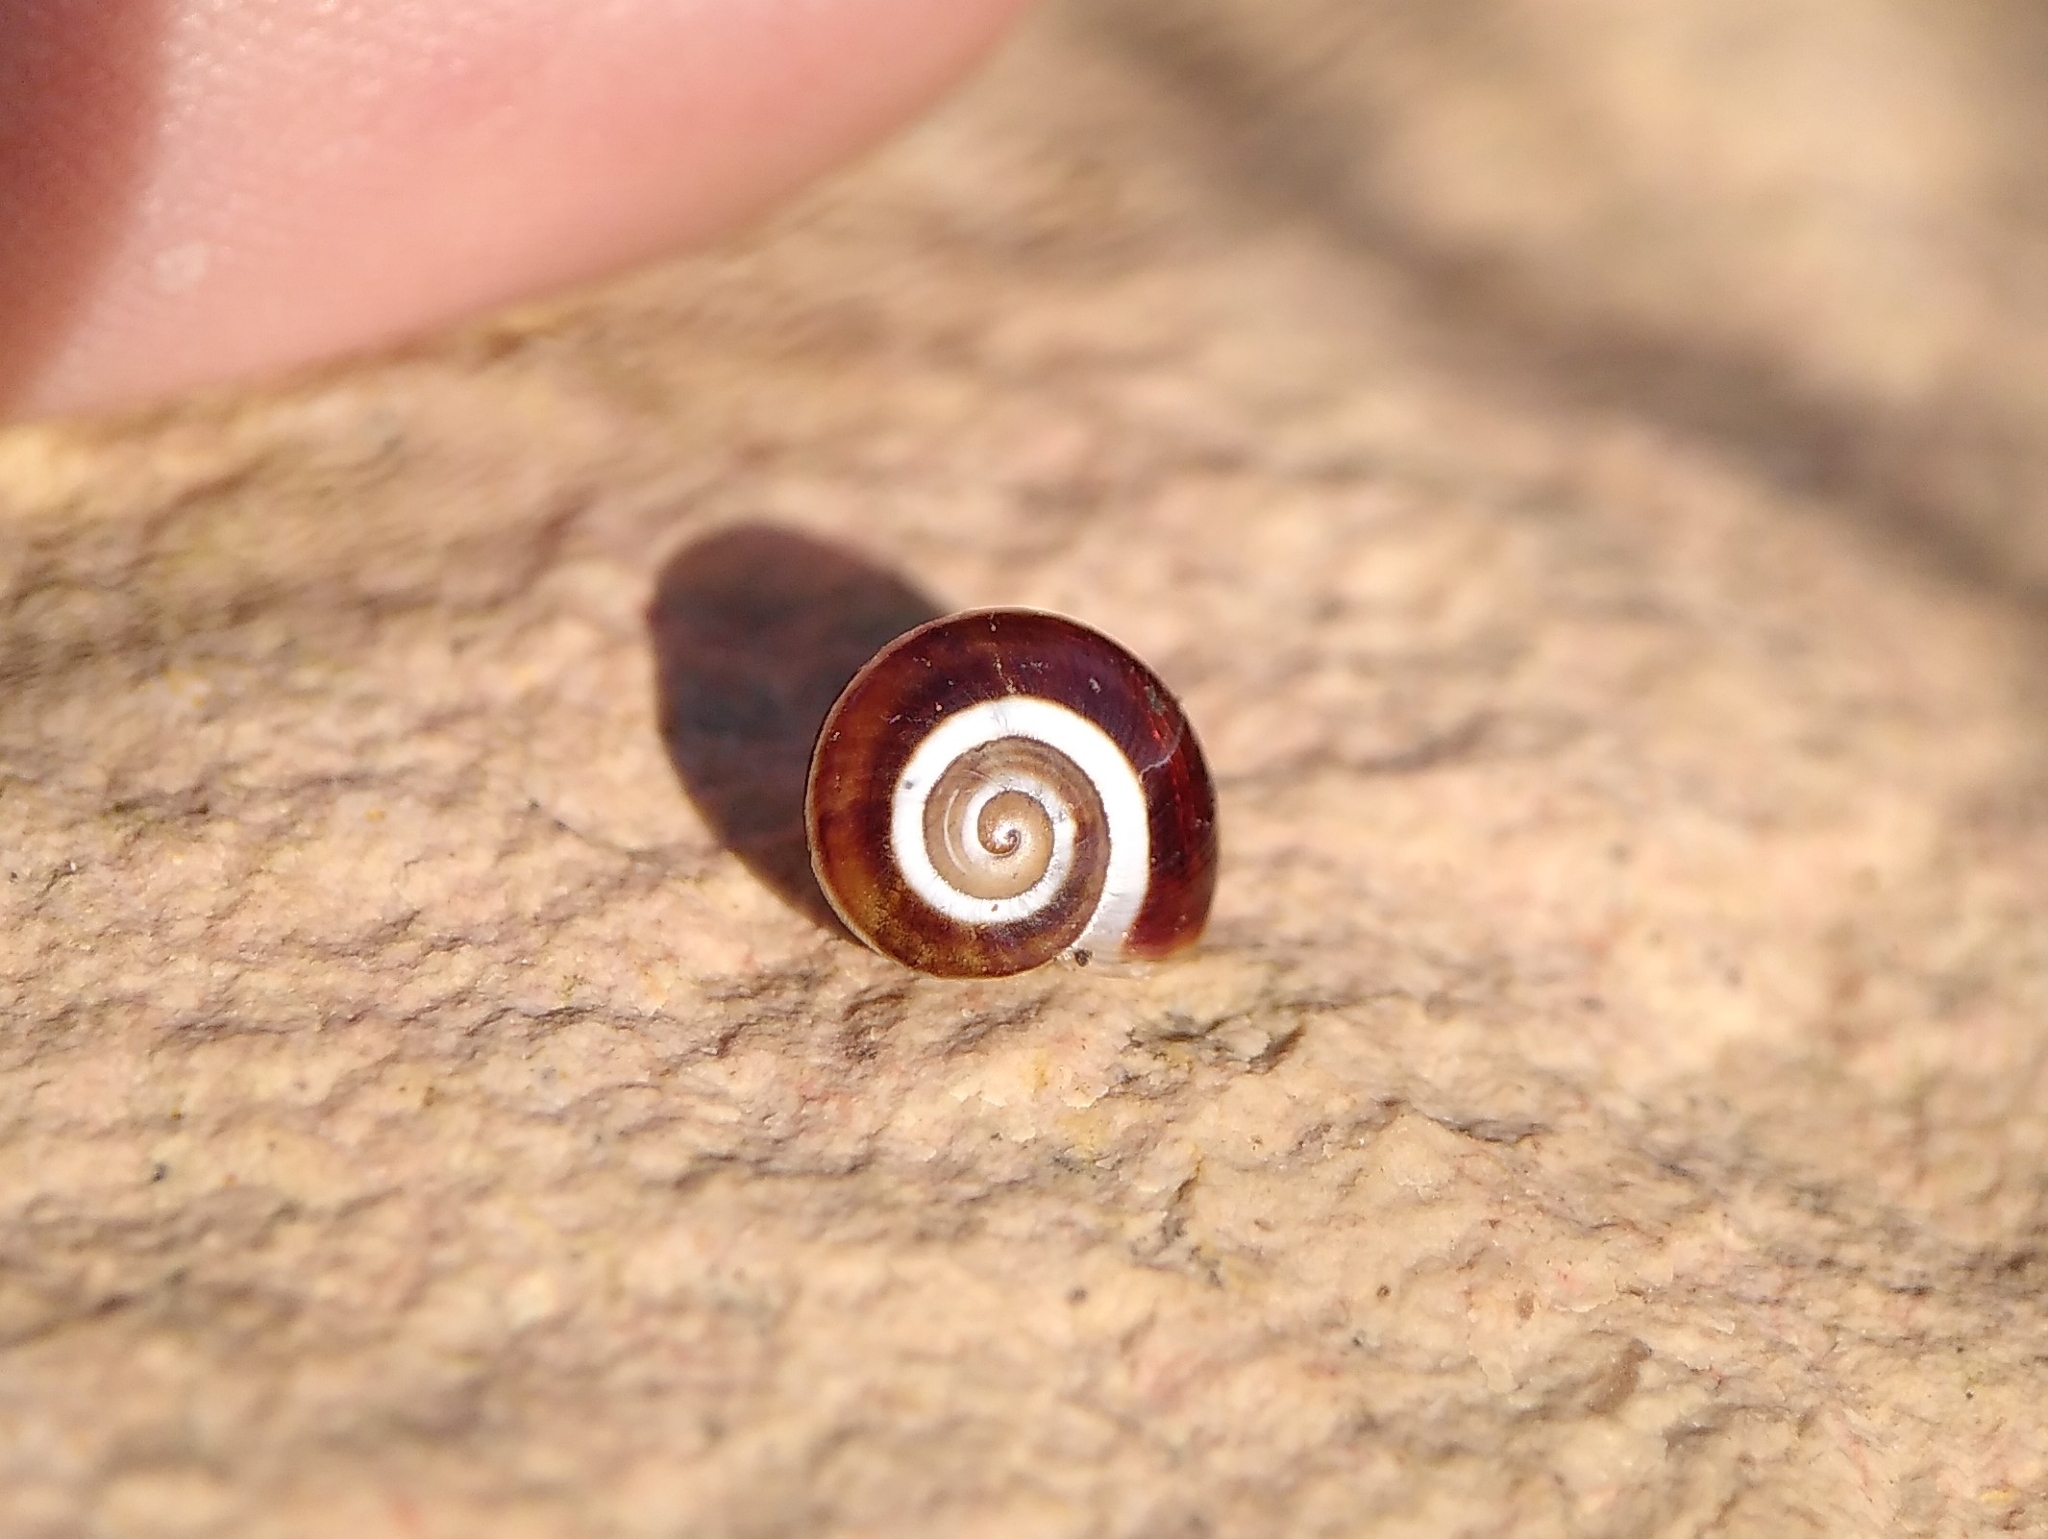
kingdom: Animalia
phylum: Mollusca
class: Gastropoda
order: Stylommatophora
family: Helicidae
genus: Pseudotachea
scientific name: Pseudotachea splendida
